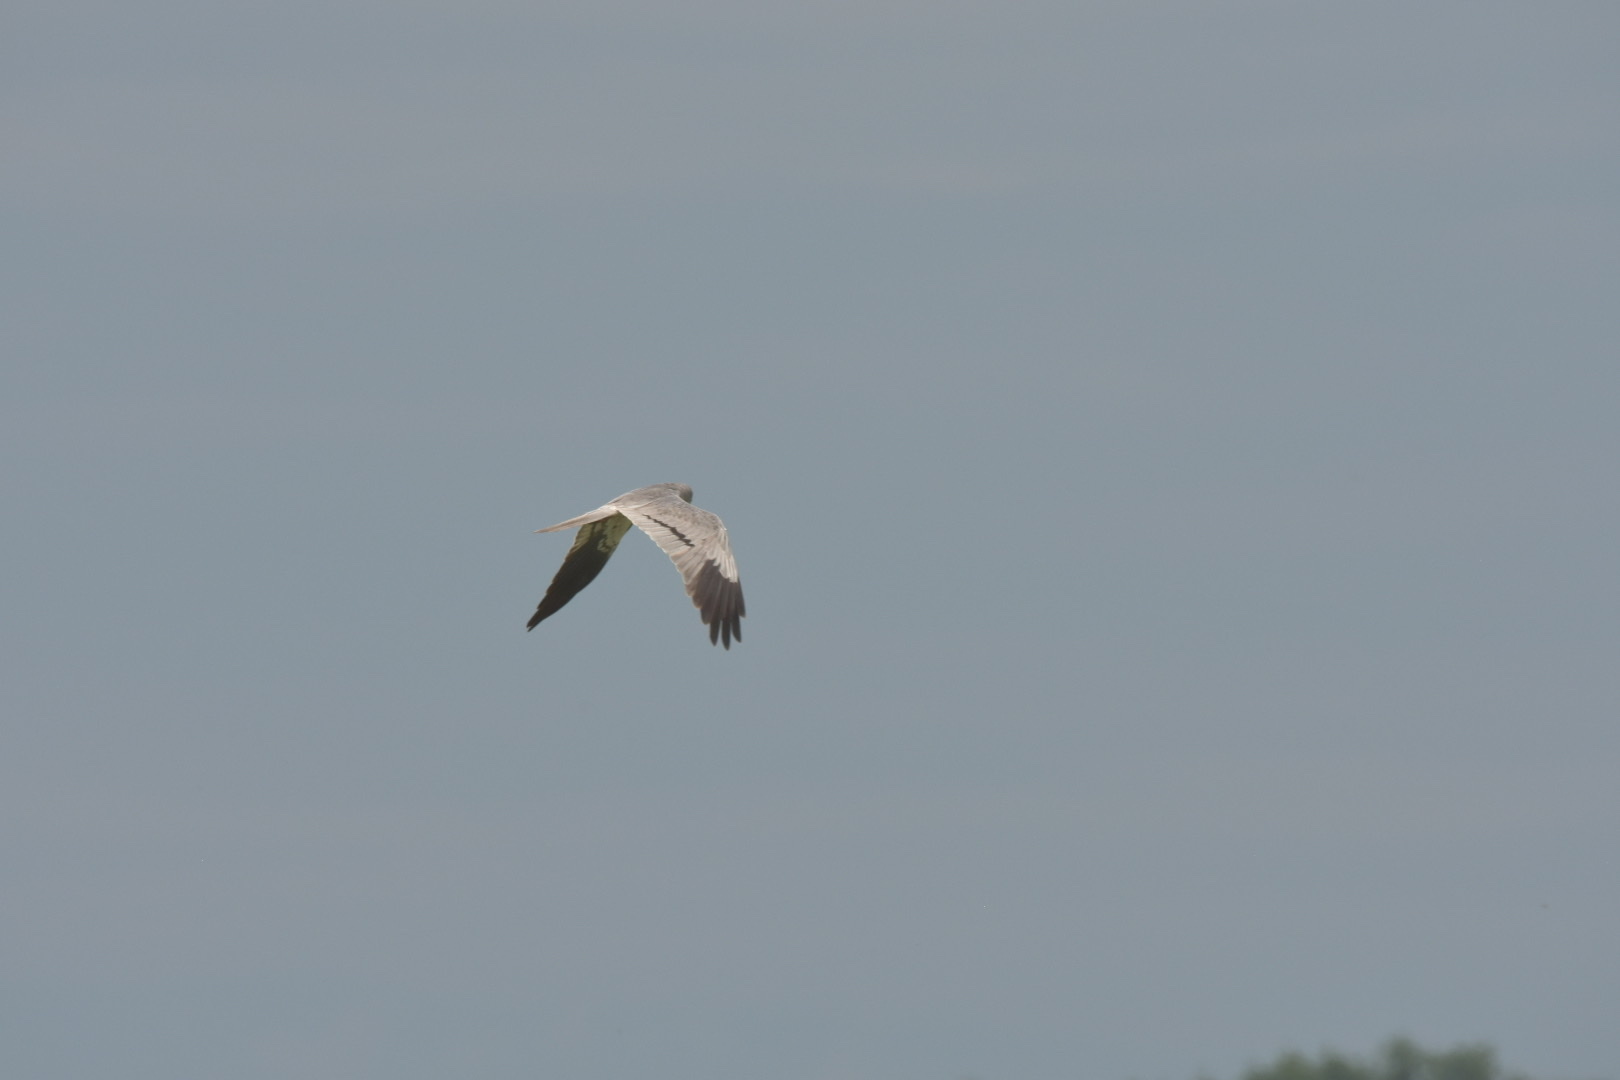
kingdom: Animalia
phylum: Chordata
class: Aves
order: Accipitriformes
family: Accipitridae
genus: Circus
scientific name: Circus pygargus
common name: Montagu's harrier
